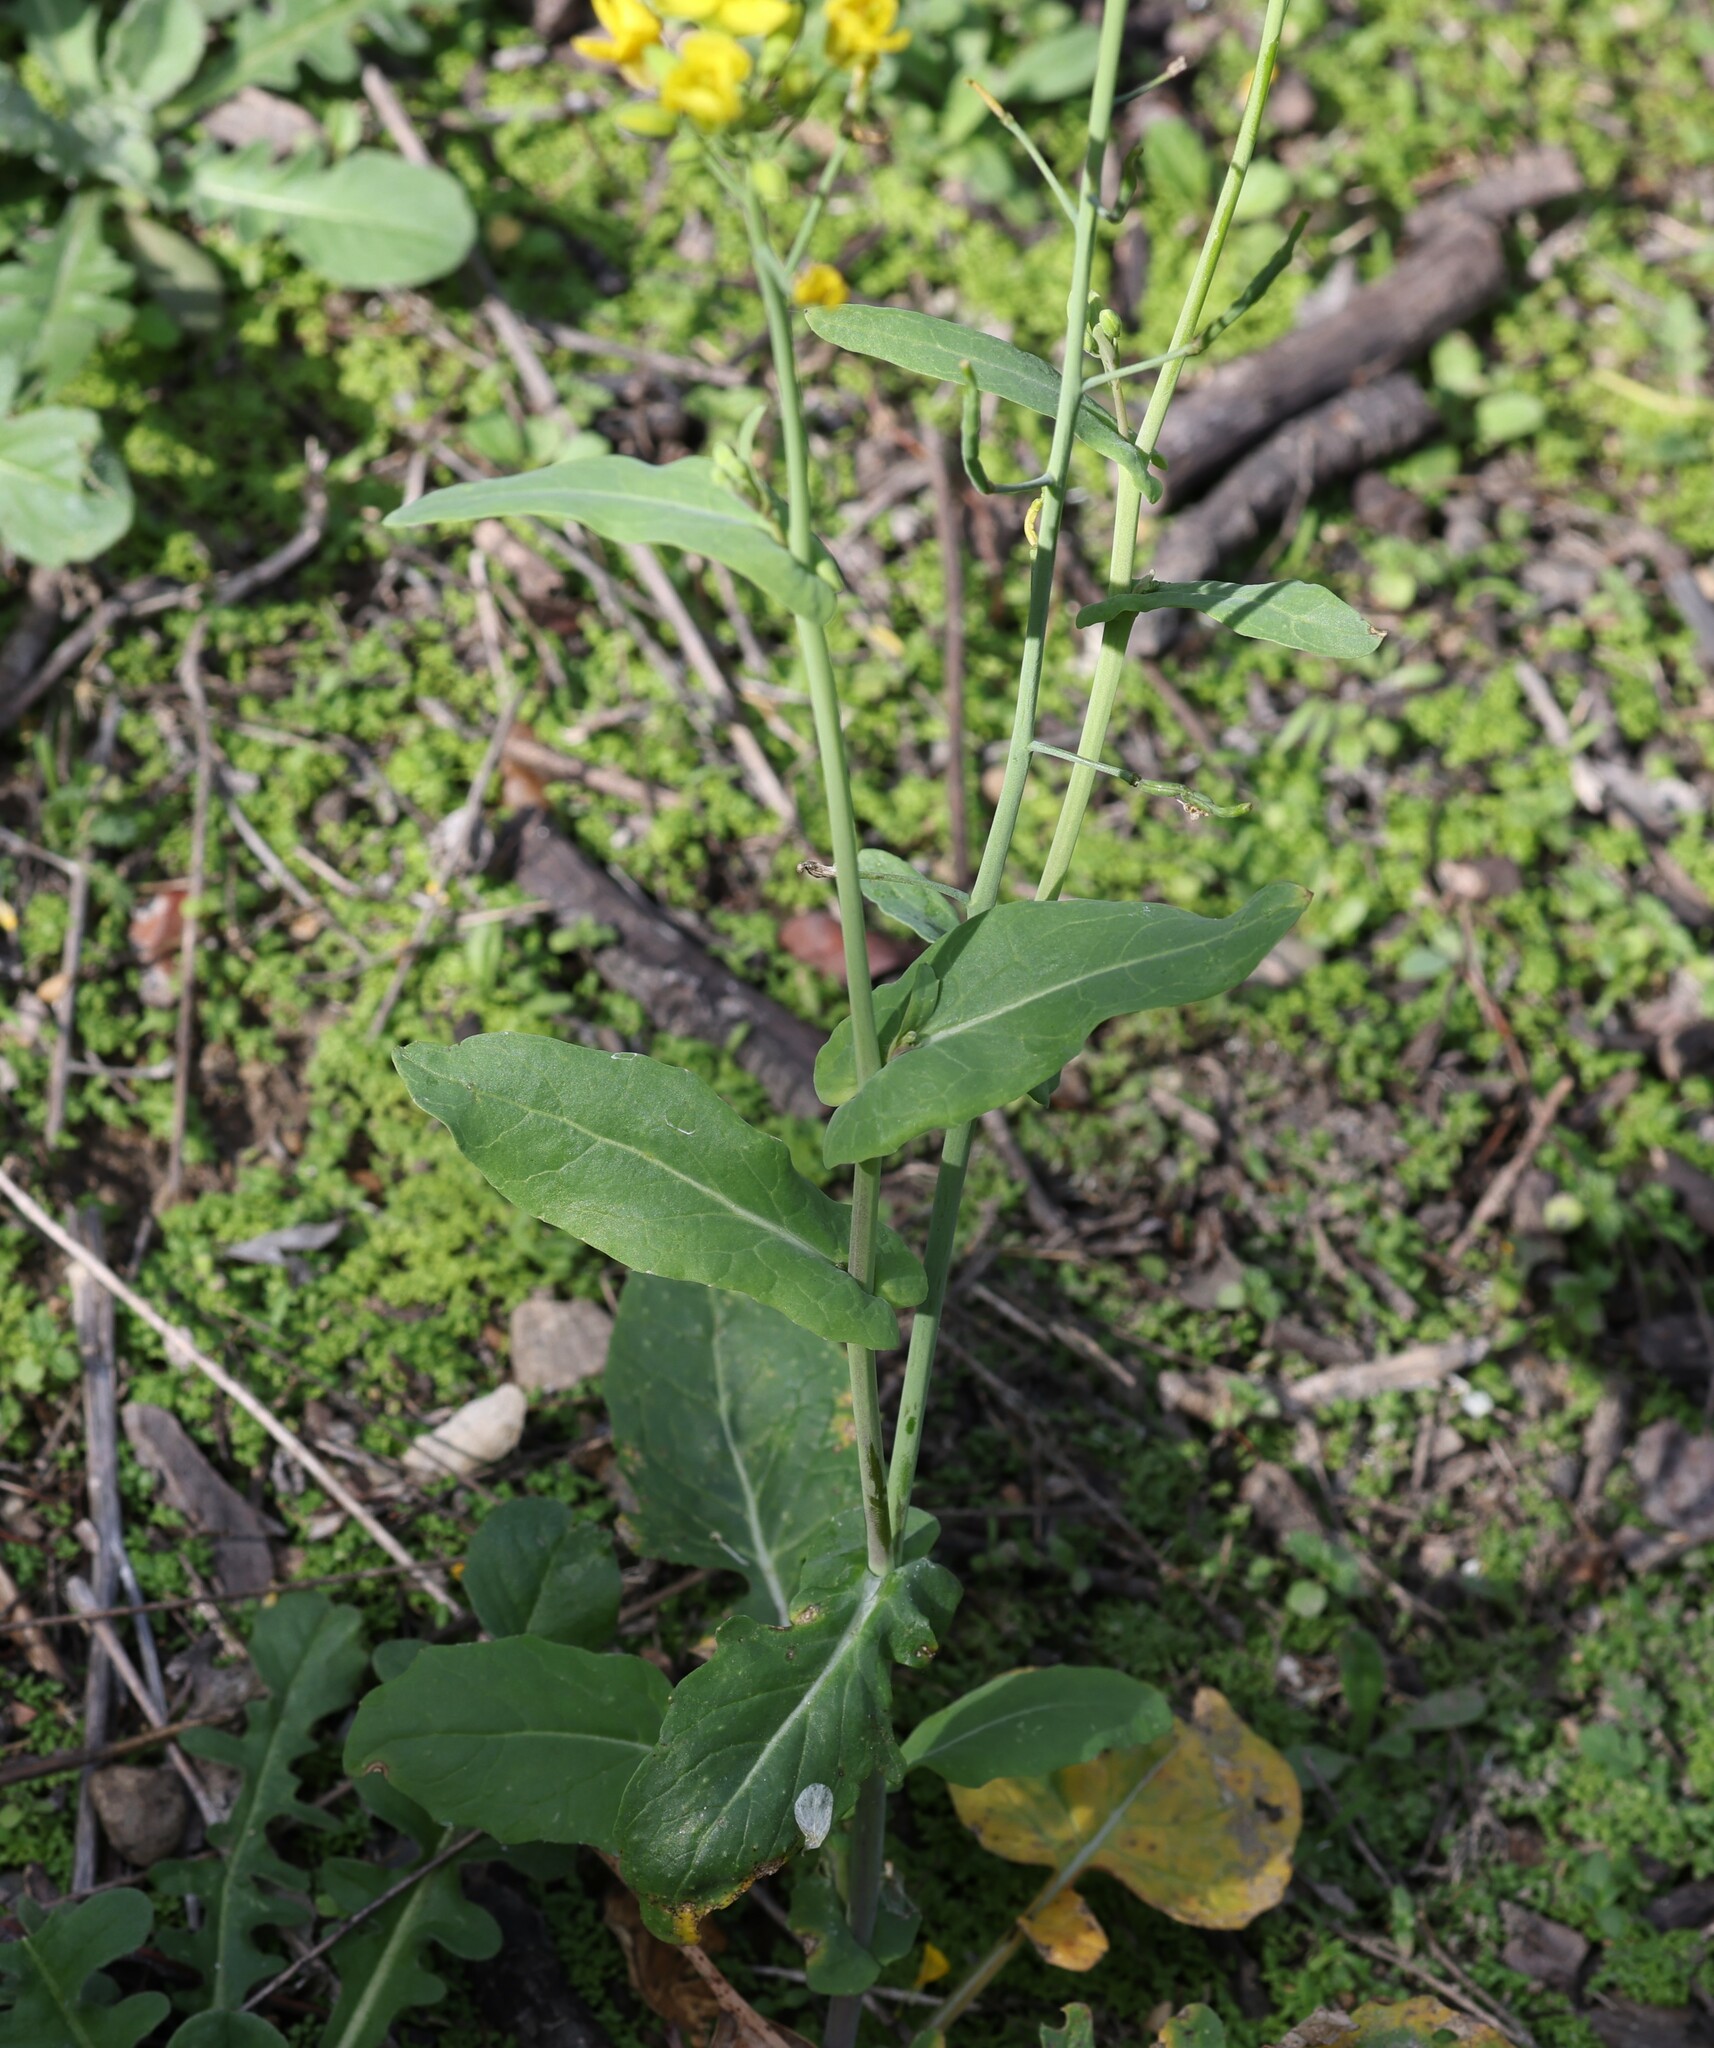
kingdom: Plantae
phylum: Tracheophyta
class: Magnoliopsida
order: Brassicales
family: Brassicaceae
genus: Brassica
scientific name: Brassica rapa
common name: Field mustard
